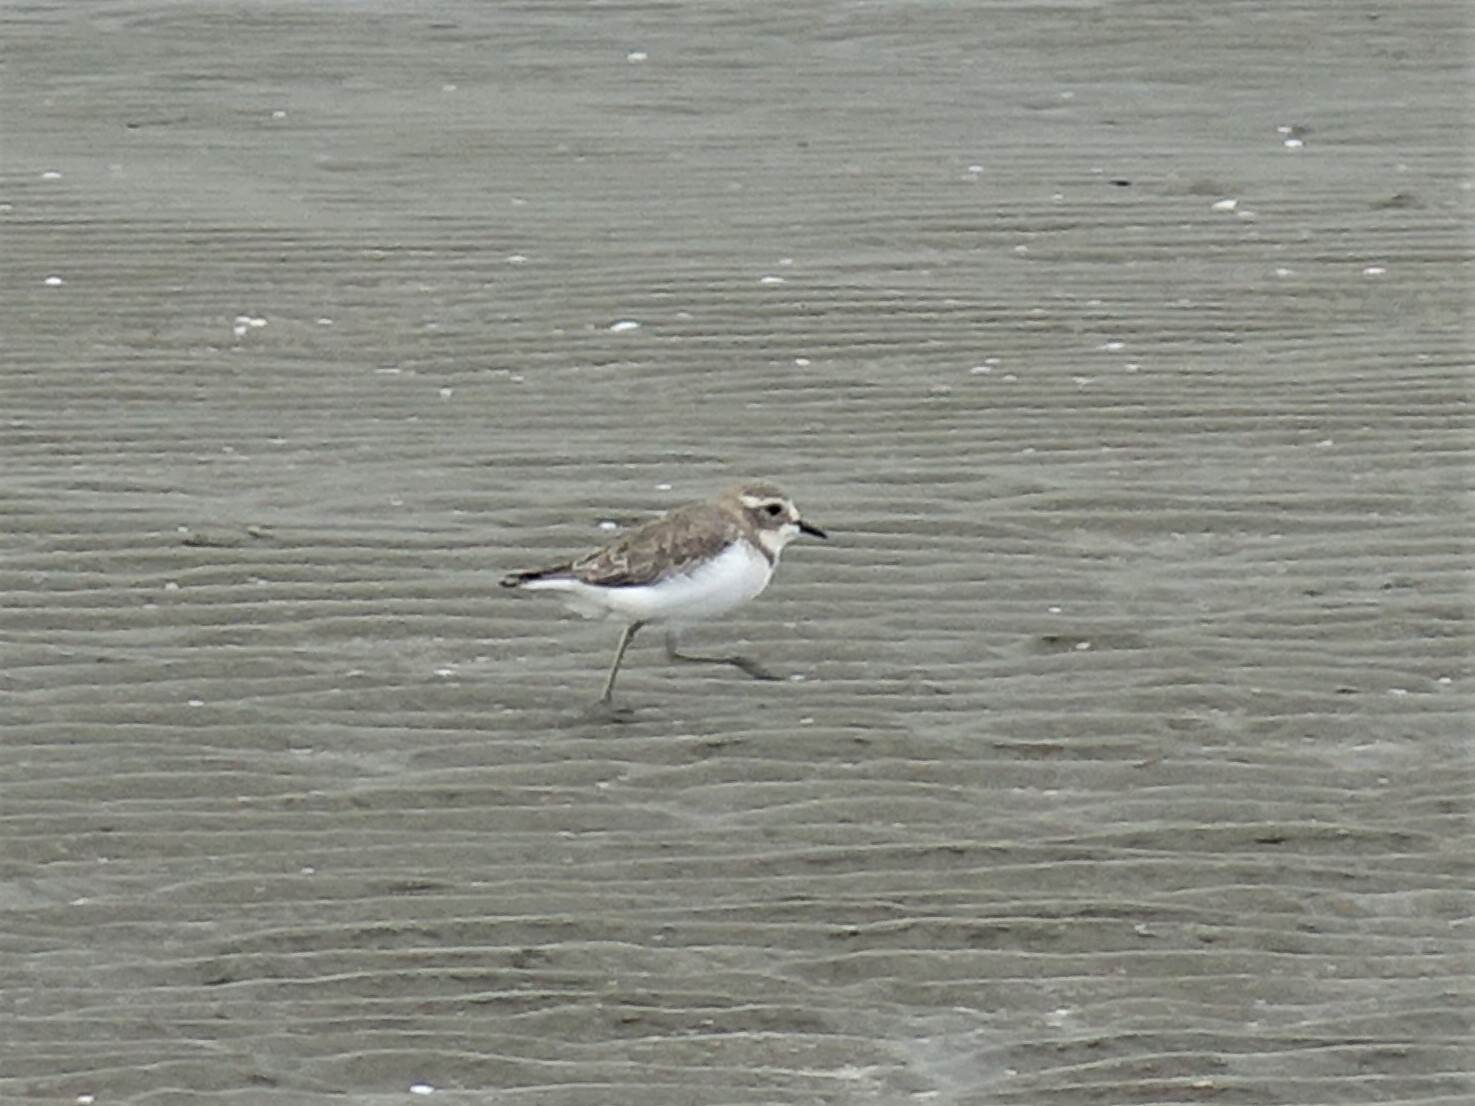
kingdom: Animalia
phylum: Chordata
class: Aves
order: Charadriiformes
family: Charadriidae
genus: Anarhynchus
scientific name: Anarhynchus
